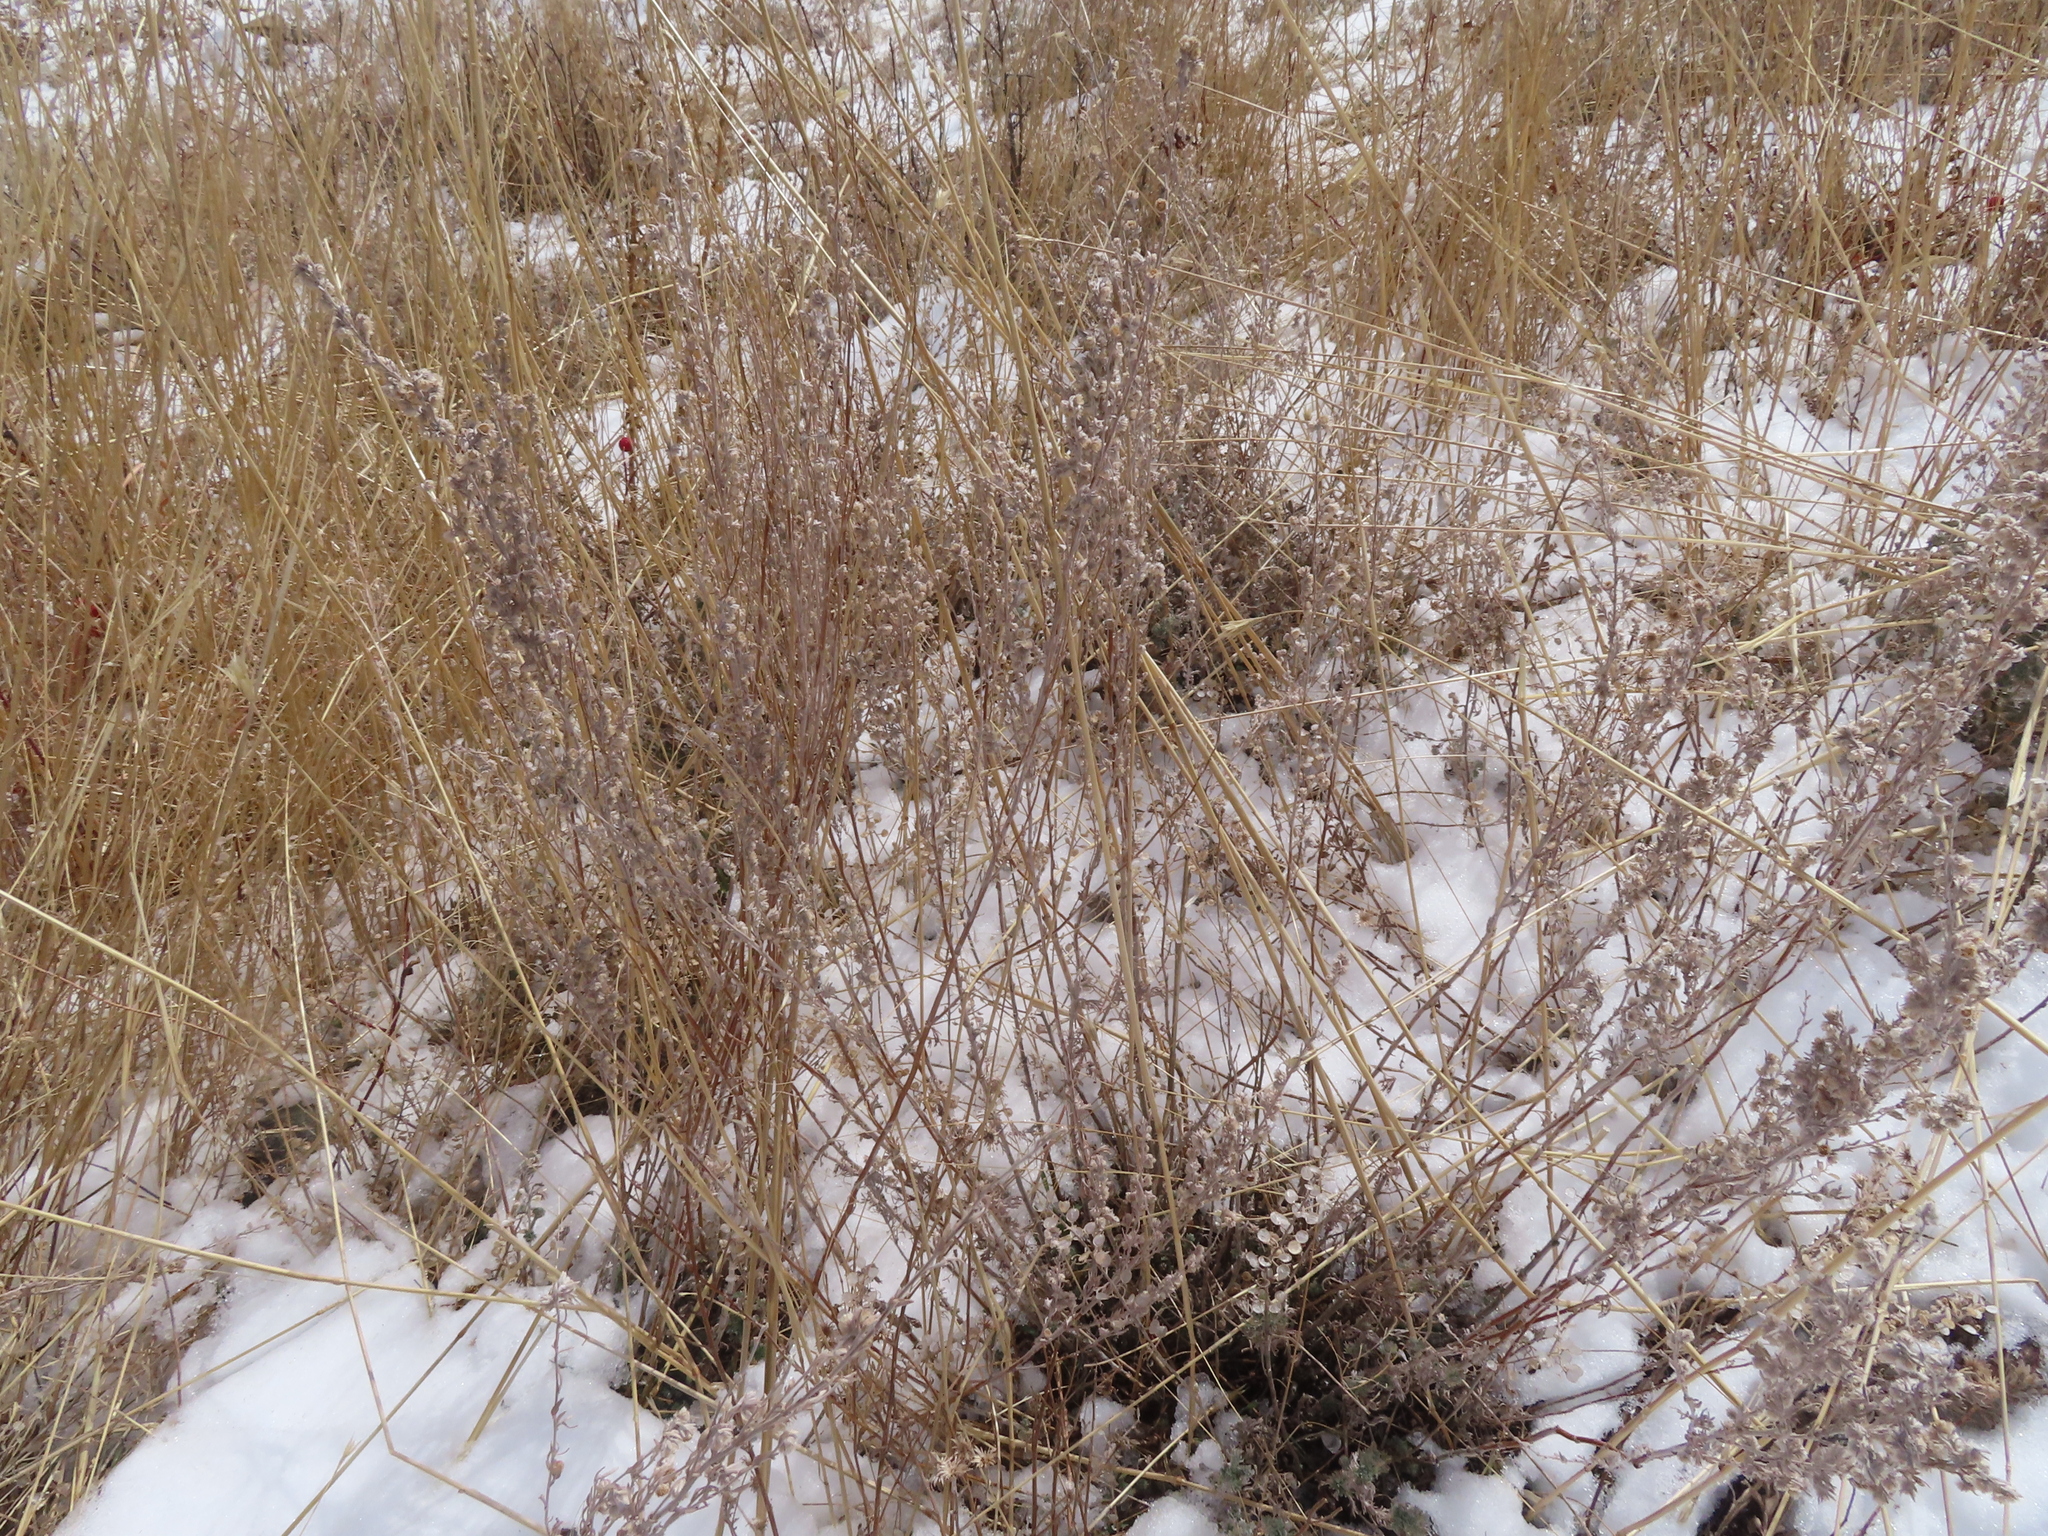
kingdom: Plantae
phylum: Tracheophyta
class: Magnoliopsida
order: Asterales
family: Asteraceae
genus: Artemisia
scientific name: Artemisia frigida
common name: Prairie sagewort
